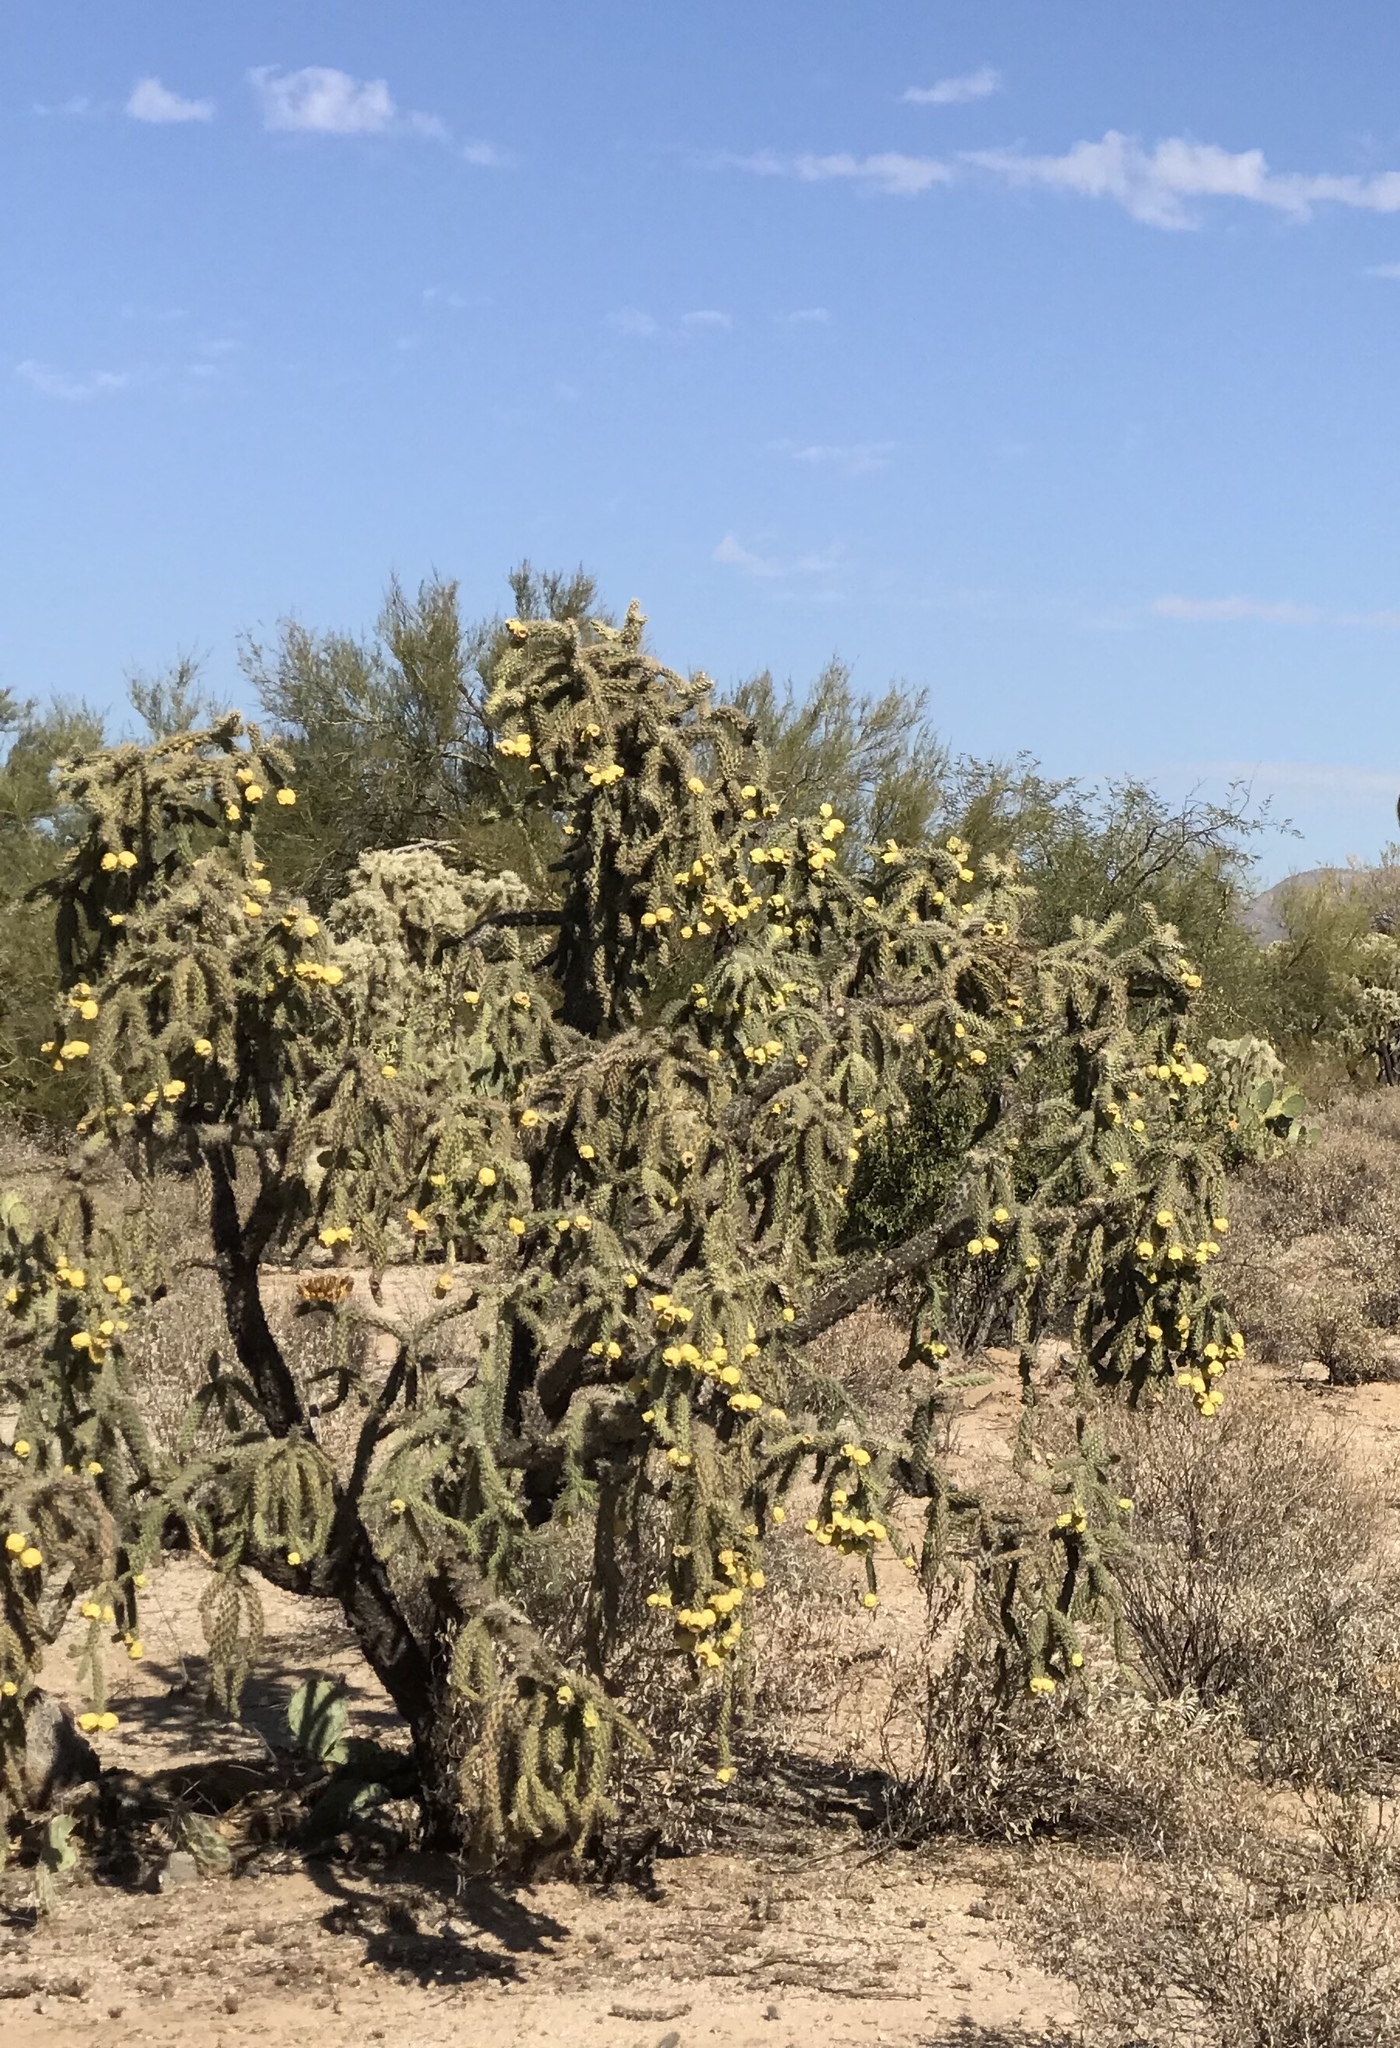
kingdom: Plantae
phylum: Tracheophyta
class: Magnoliopsida
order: Caryophyllales
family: Cactaceae
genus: Cylindropuntia
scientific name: Cylindropuntia imbricata
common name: Candelabrum cactus
